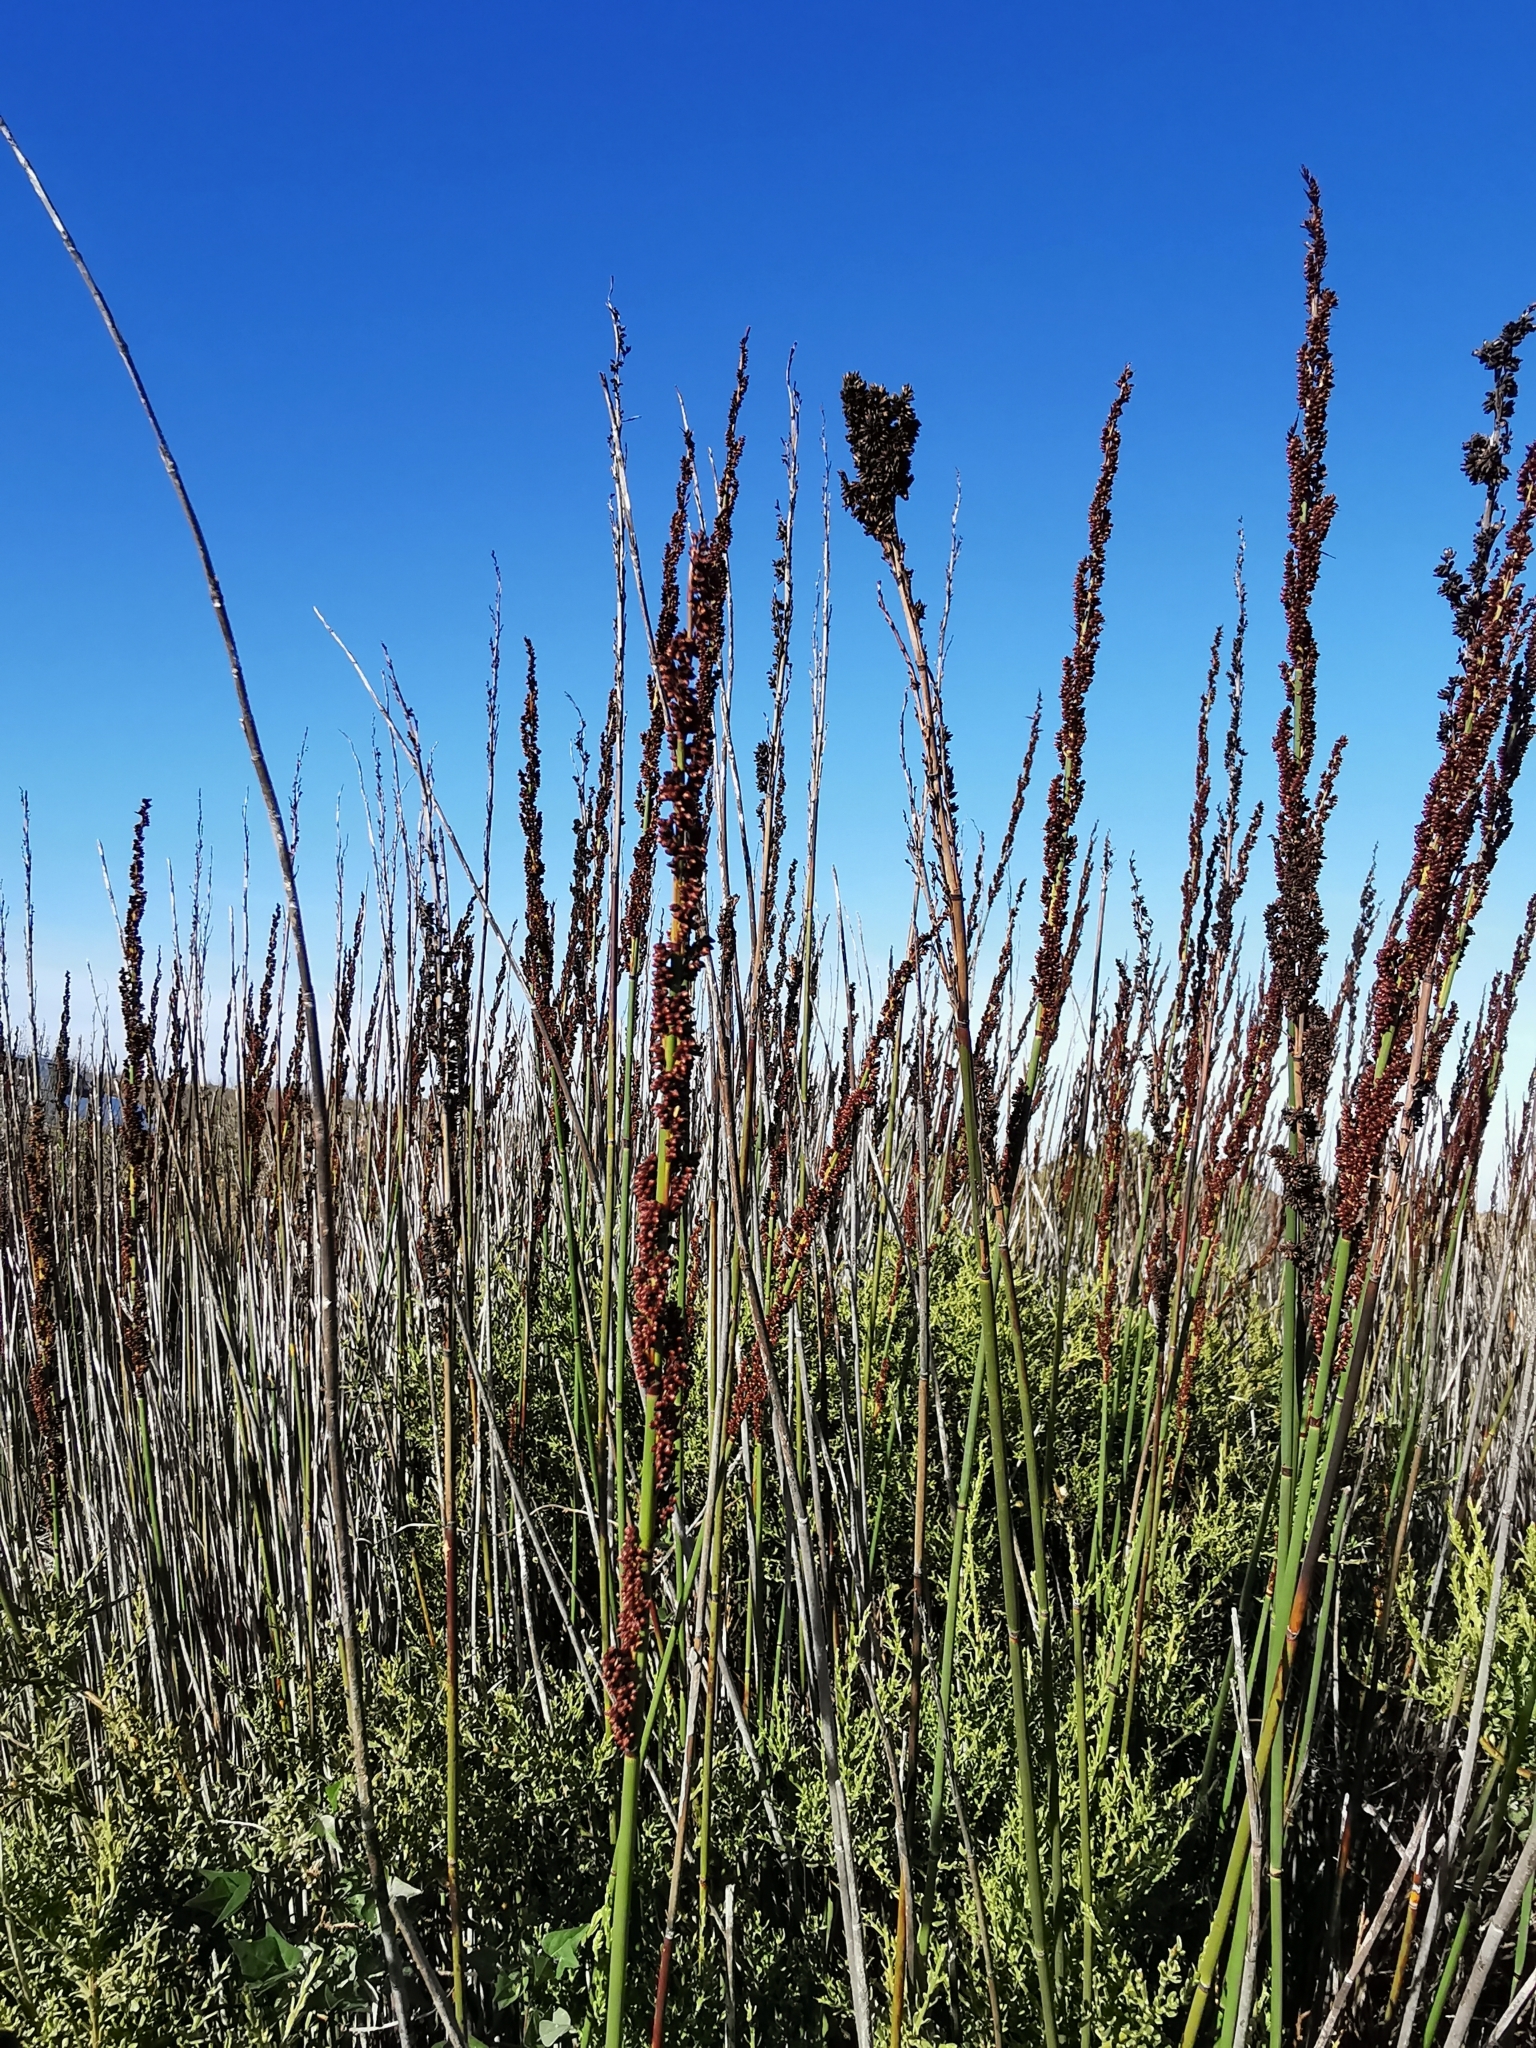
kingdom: Plantae
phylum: Tracheophyta
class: Liliopsida
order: Poales
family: Restionaceae
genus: Elegia
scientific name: Elegia elephantina
